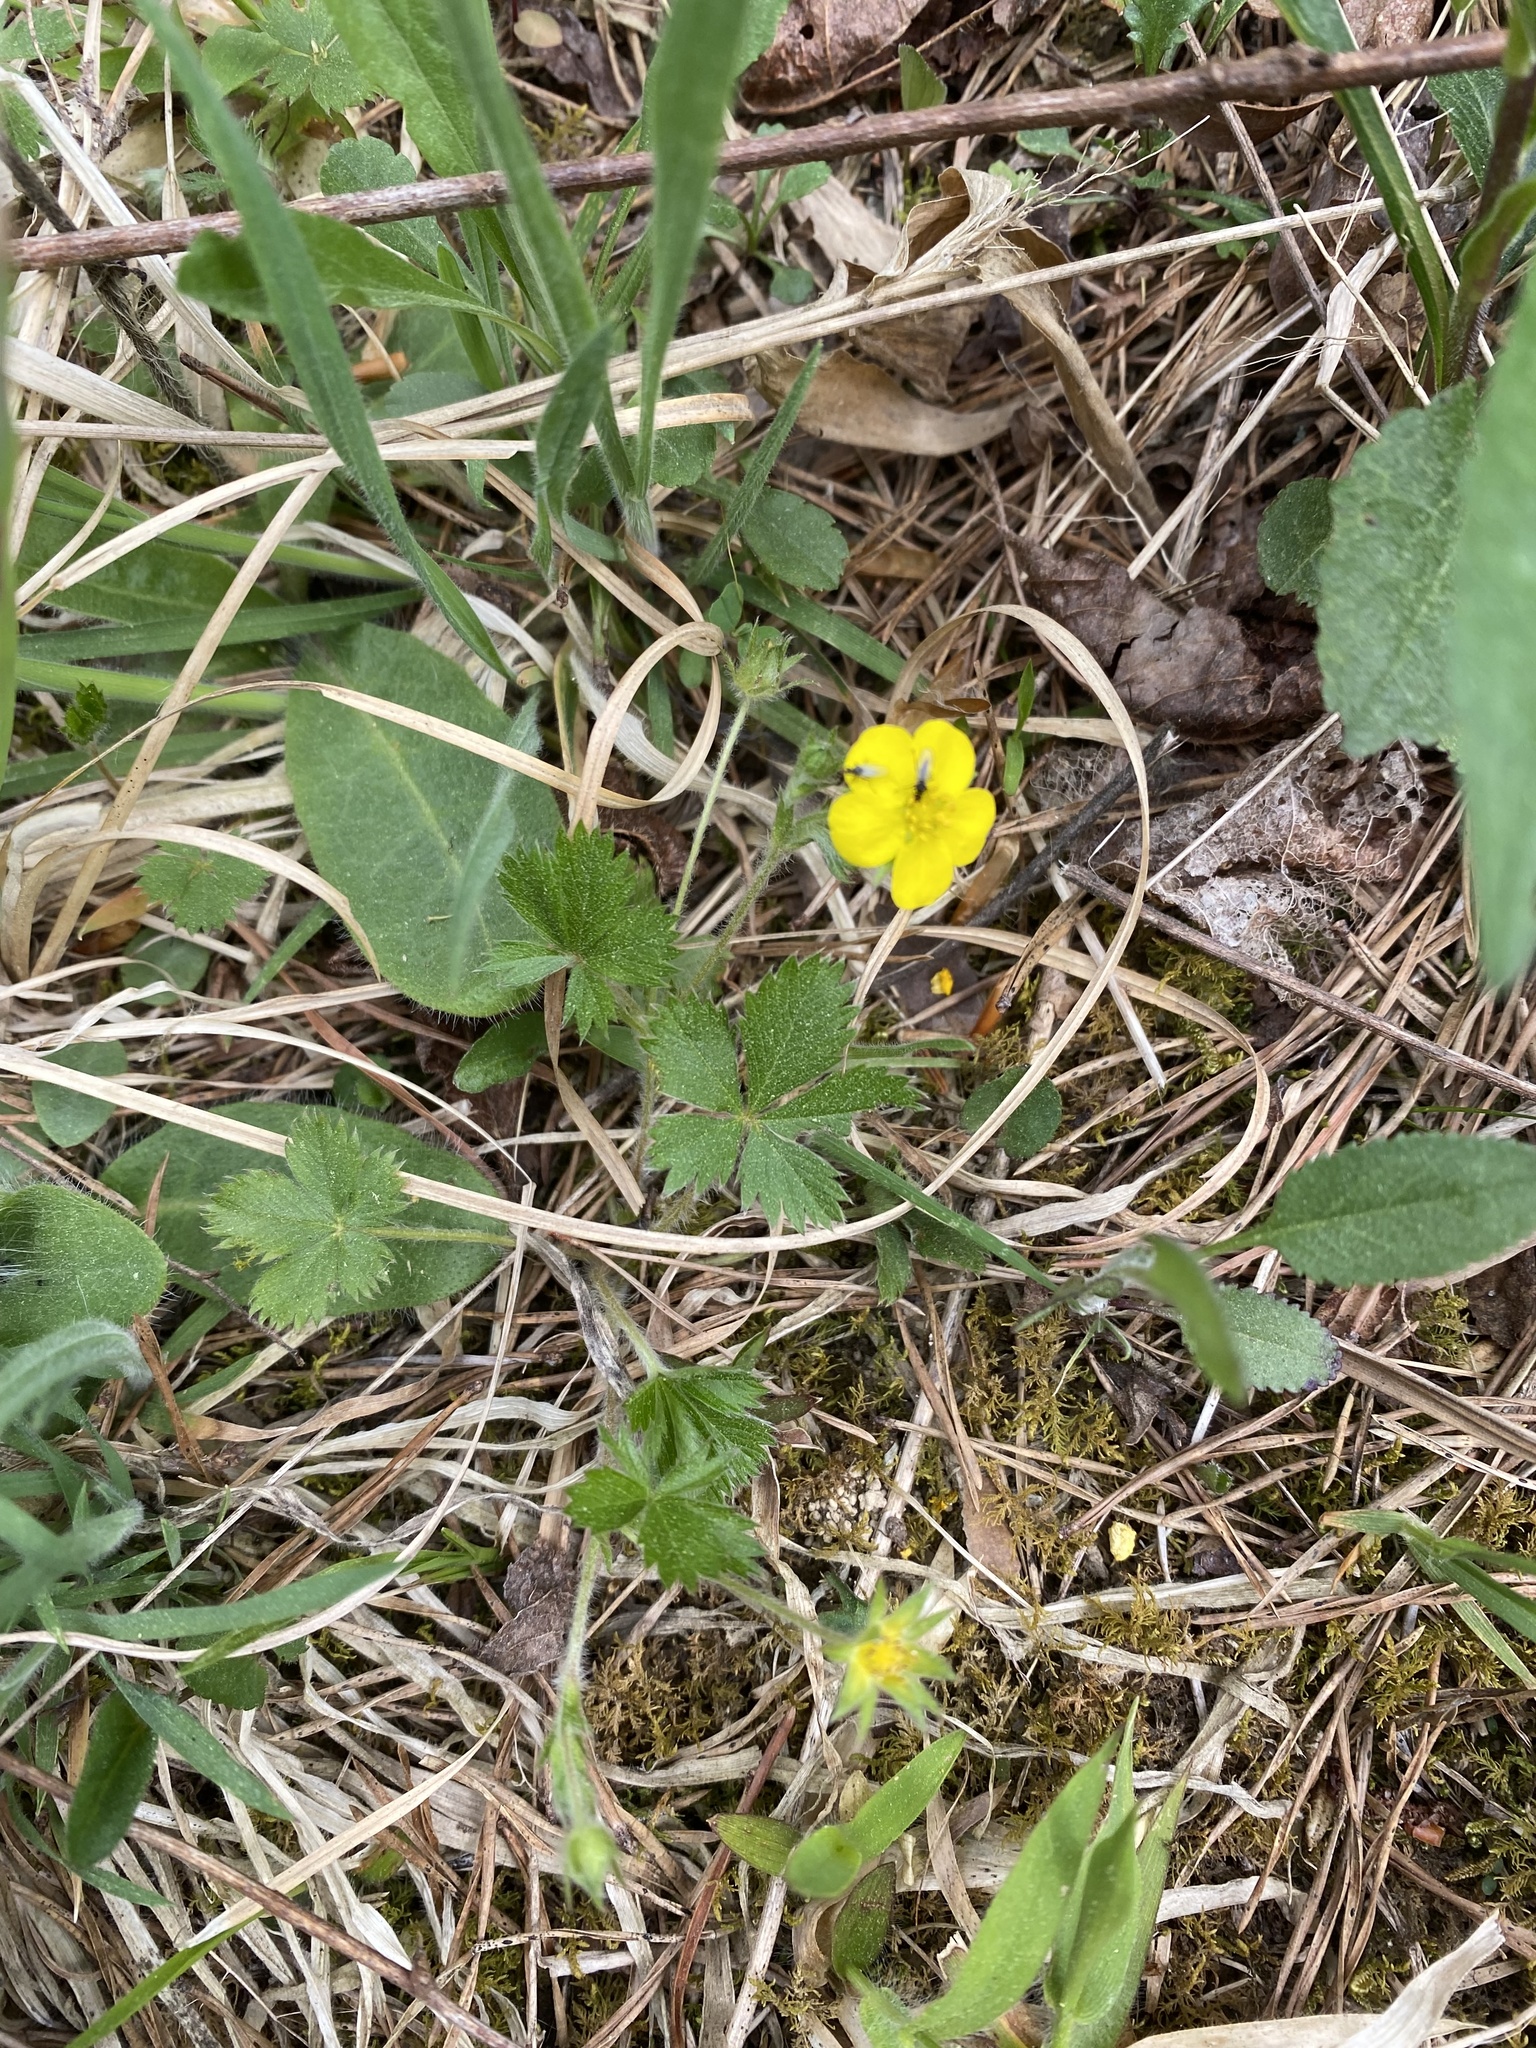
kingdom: Plantae
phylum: Tracheophyta
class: Magnoliopsida
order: Rosales
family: Rosaceae
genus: Potentilla
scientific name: Potentilla canadensis
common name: Canada cinquefoil
